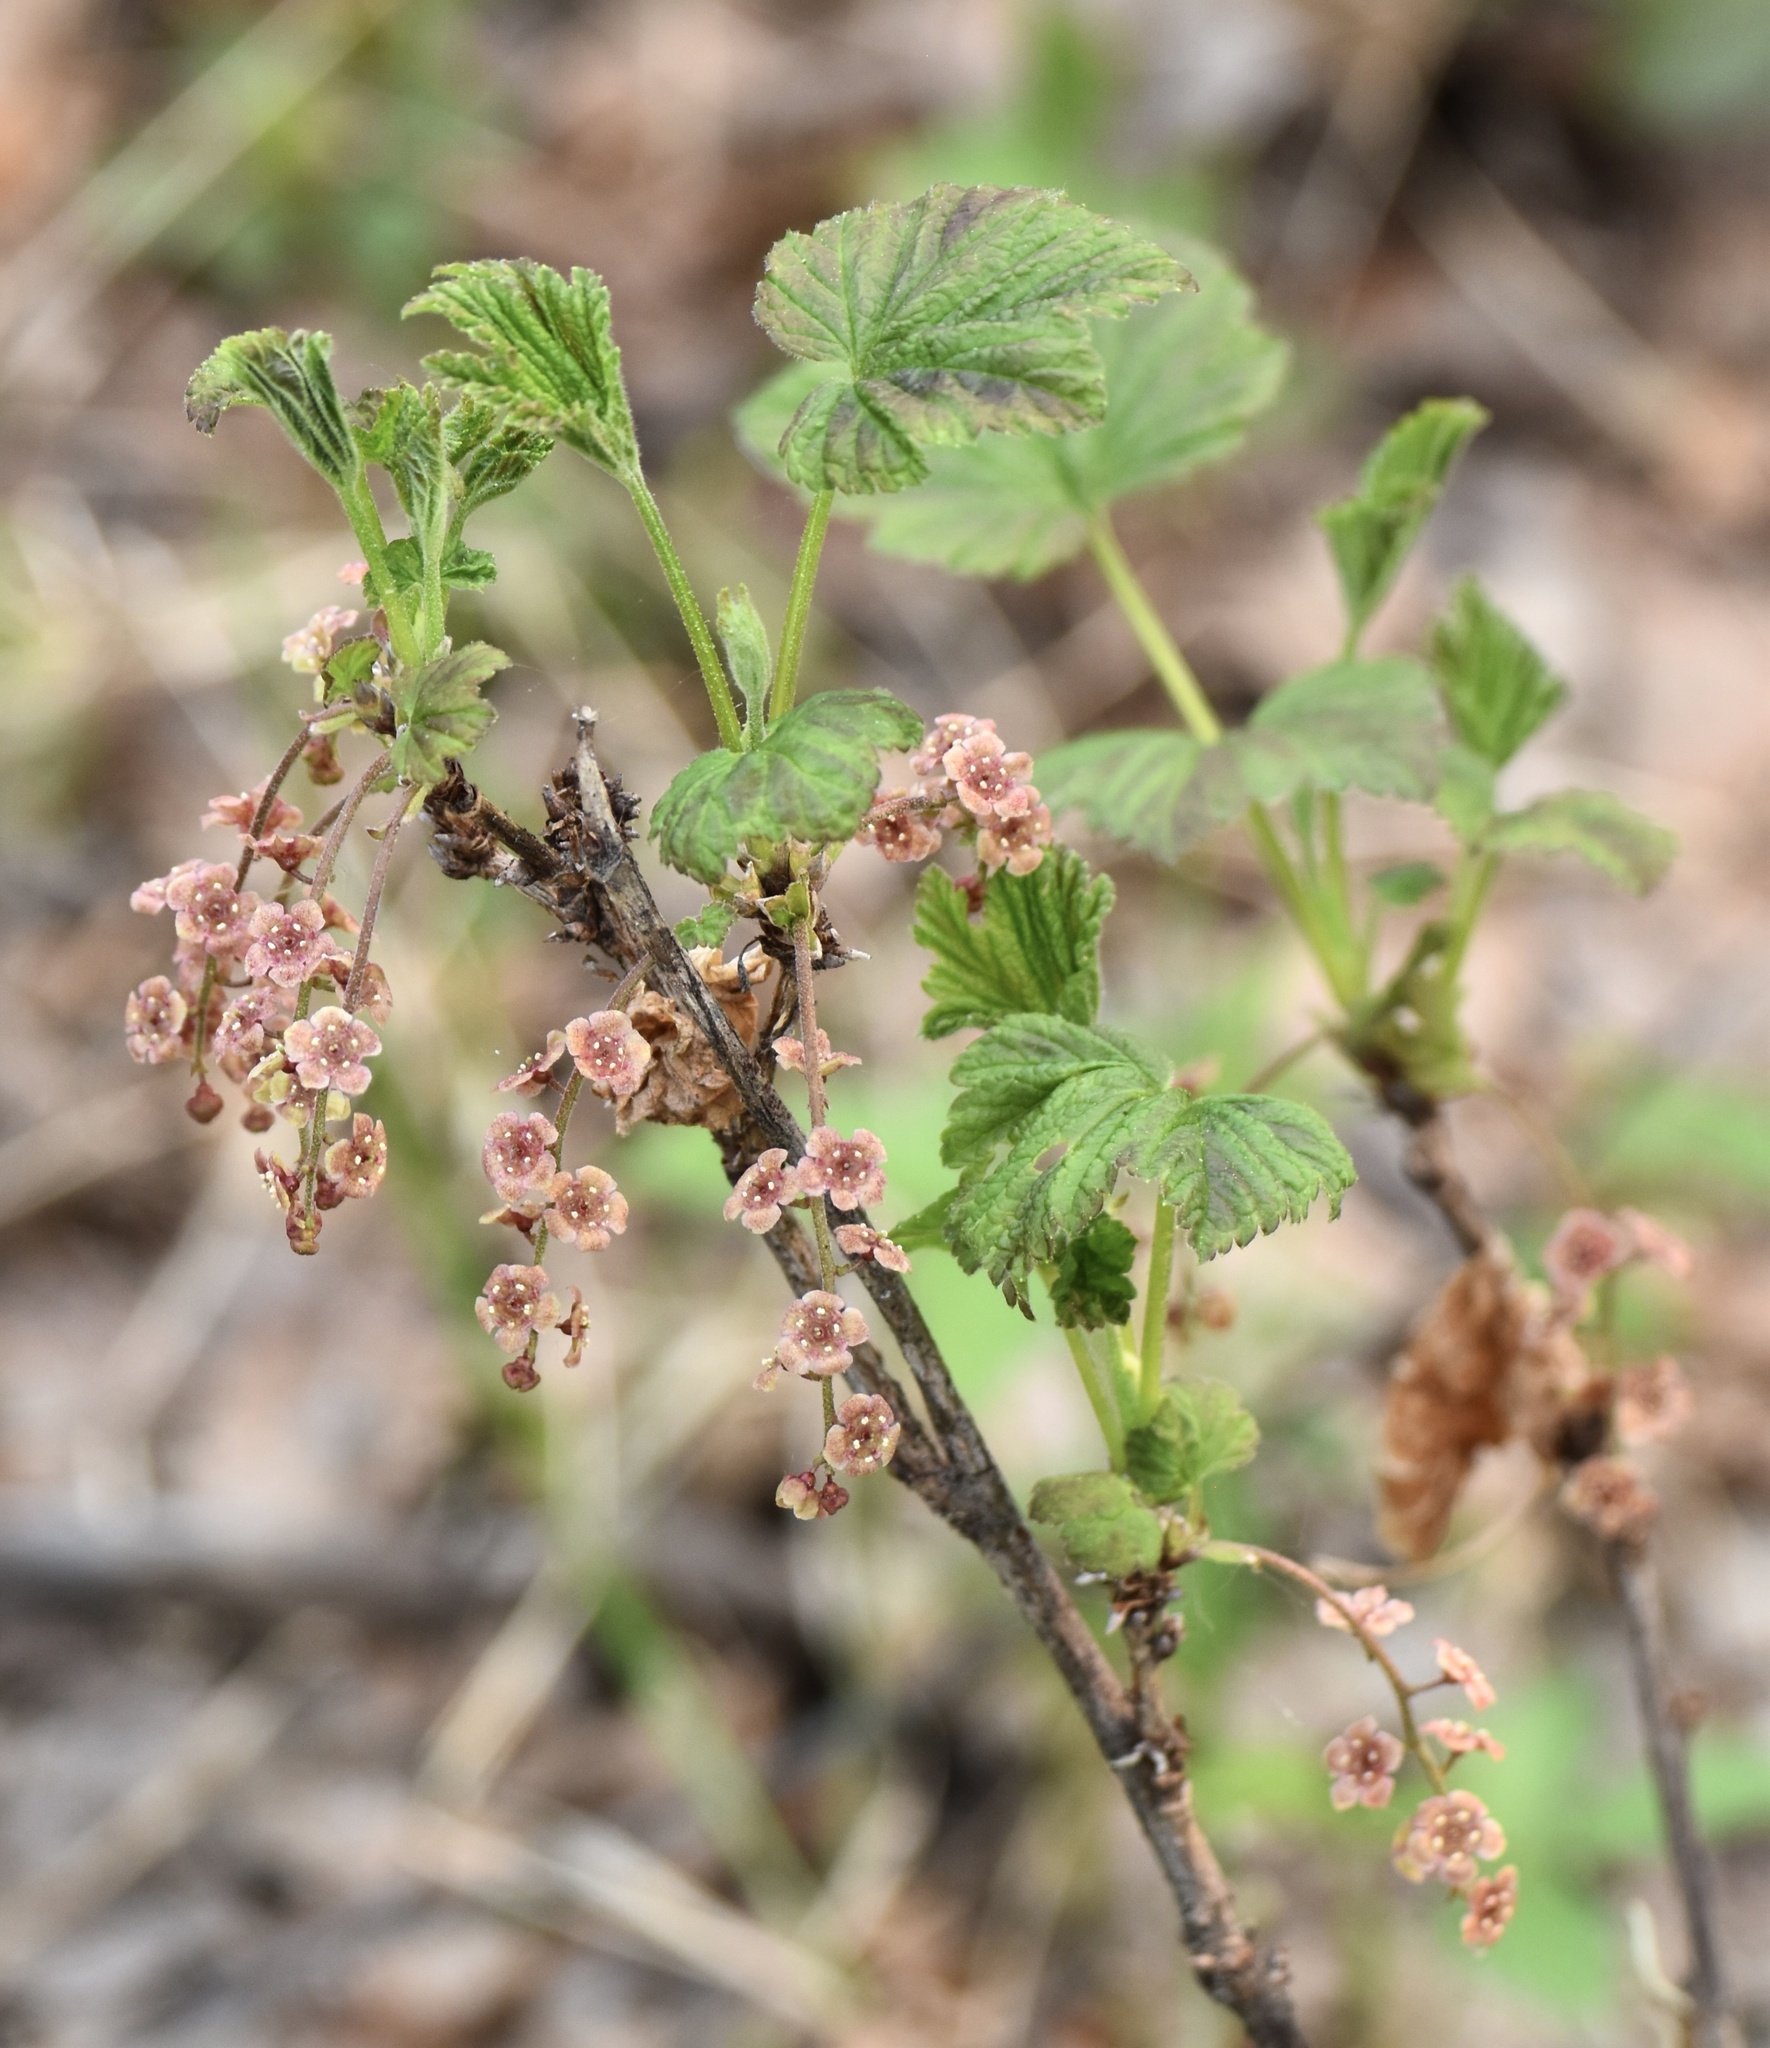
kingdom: Plantae
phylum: Tracheophyta
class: Magnoliopsida
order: Saxifragales
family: Grossulariaceae
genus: Ribes
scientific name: Ribes triste
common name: Swamp red currant
